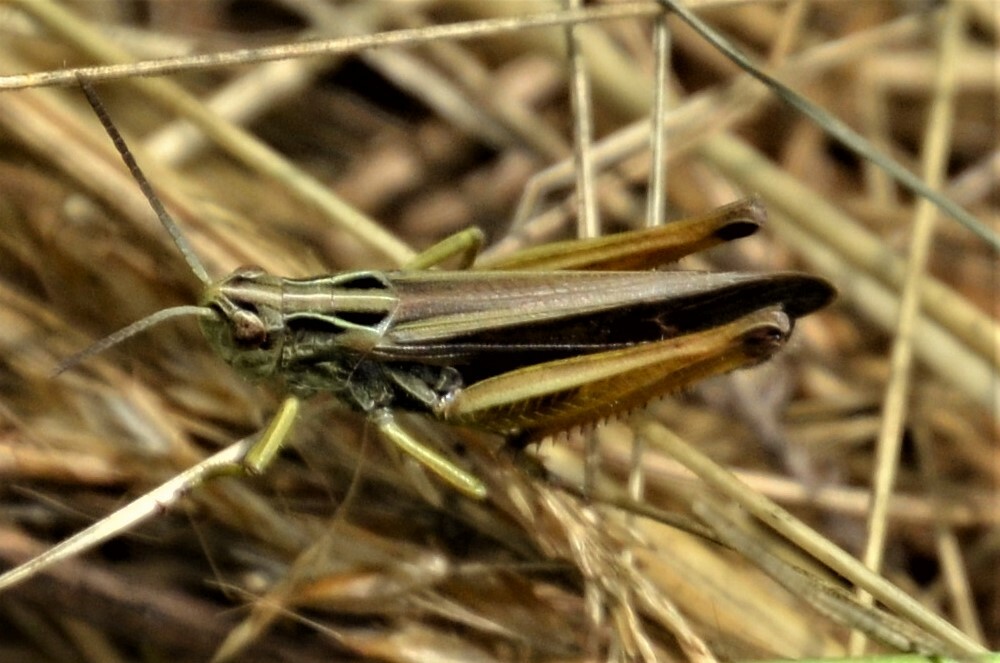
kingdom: Animalia
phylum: Arthropoda
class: Insecta
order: Orthoptera
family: Acrididae
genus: Omocestus
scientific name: Omocestus viridulus
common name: Common green grasshopper
